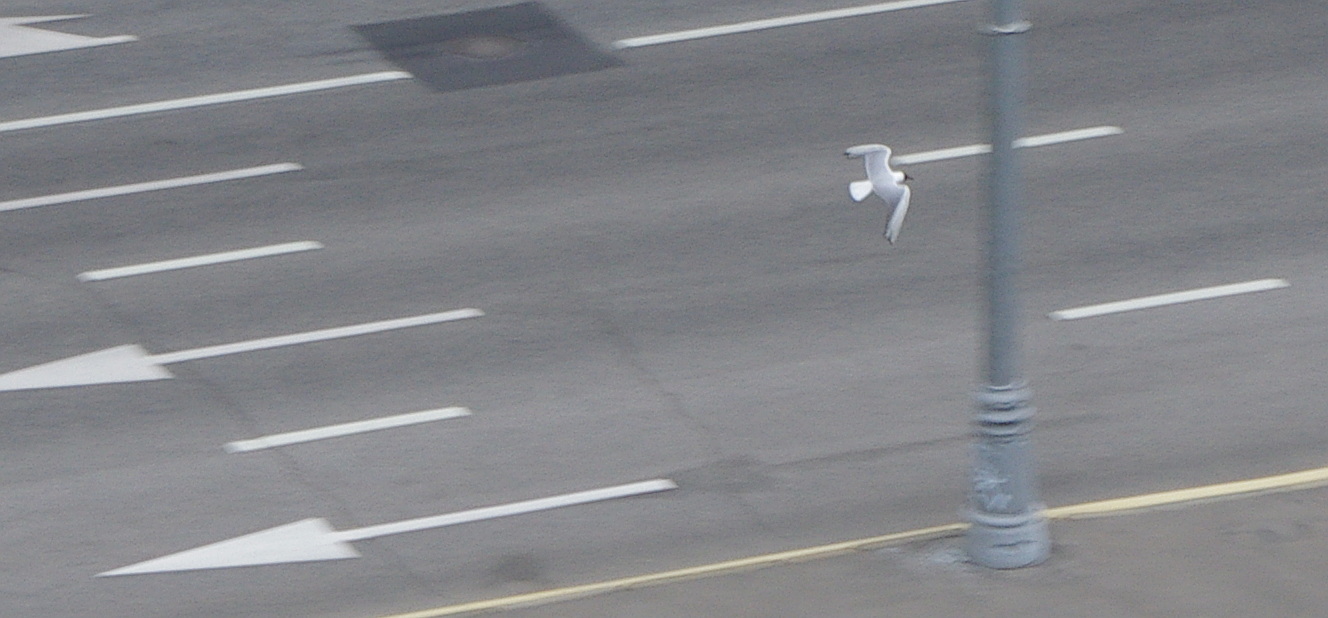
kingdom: Animalia
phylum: Chordata
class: Aves
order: Charadriiformes
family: Laridae
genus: Chroicocephalus
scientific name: Chroicocephalus ridibundus
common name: Black-headed gull
